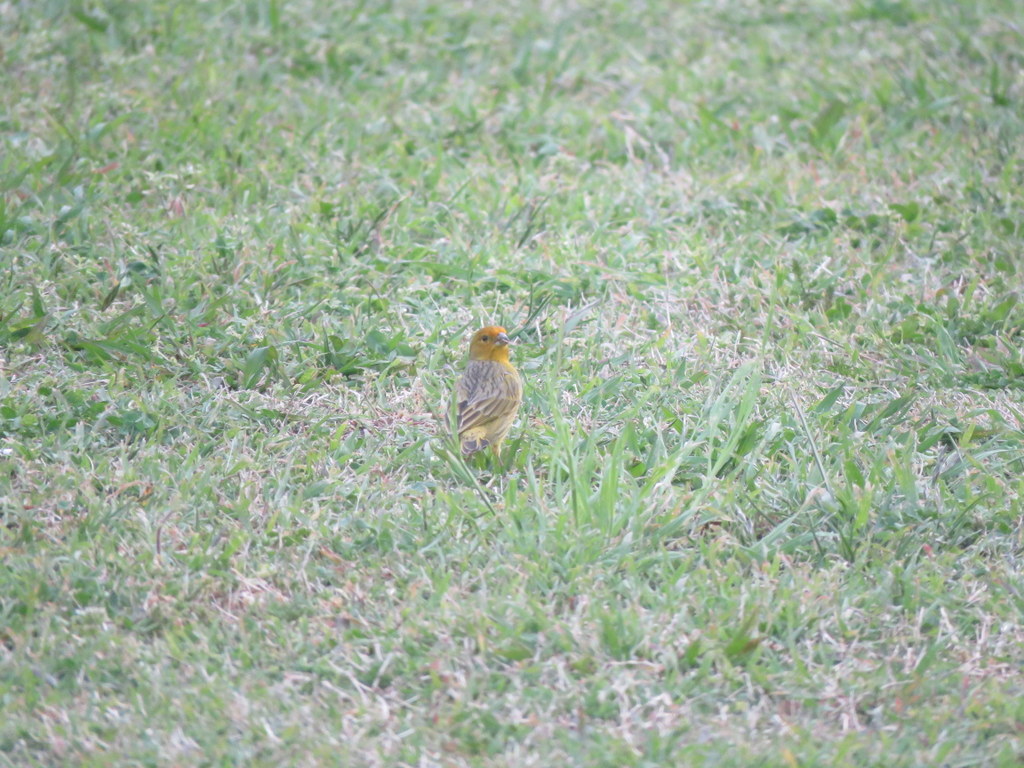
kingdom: Animalia
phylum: Chordata
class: Aves
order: Passeriformes
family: Thraupidae
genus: Sicalis
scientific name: Sicalis flaveola
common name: Saffron finch
